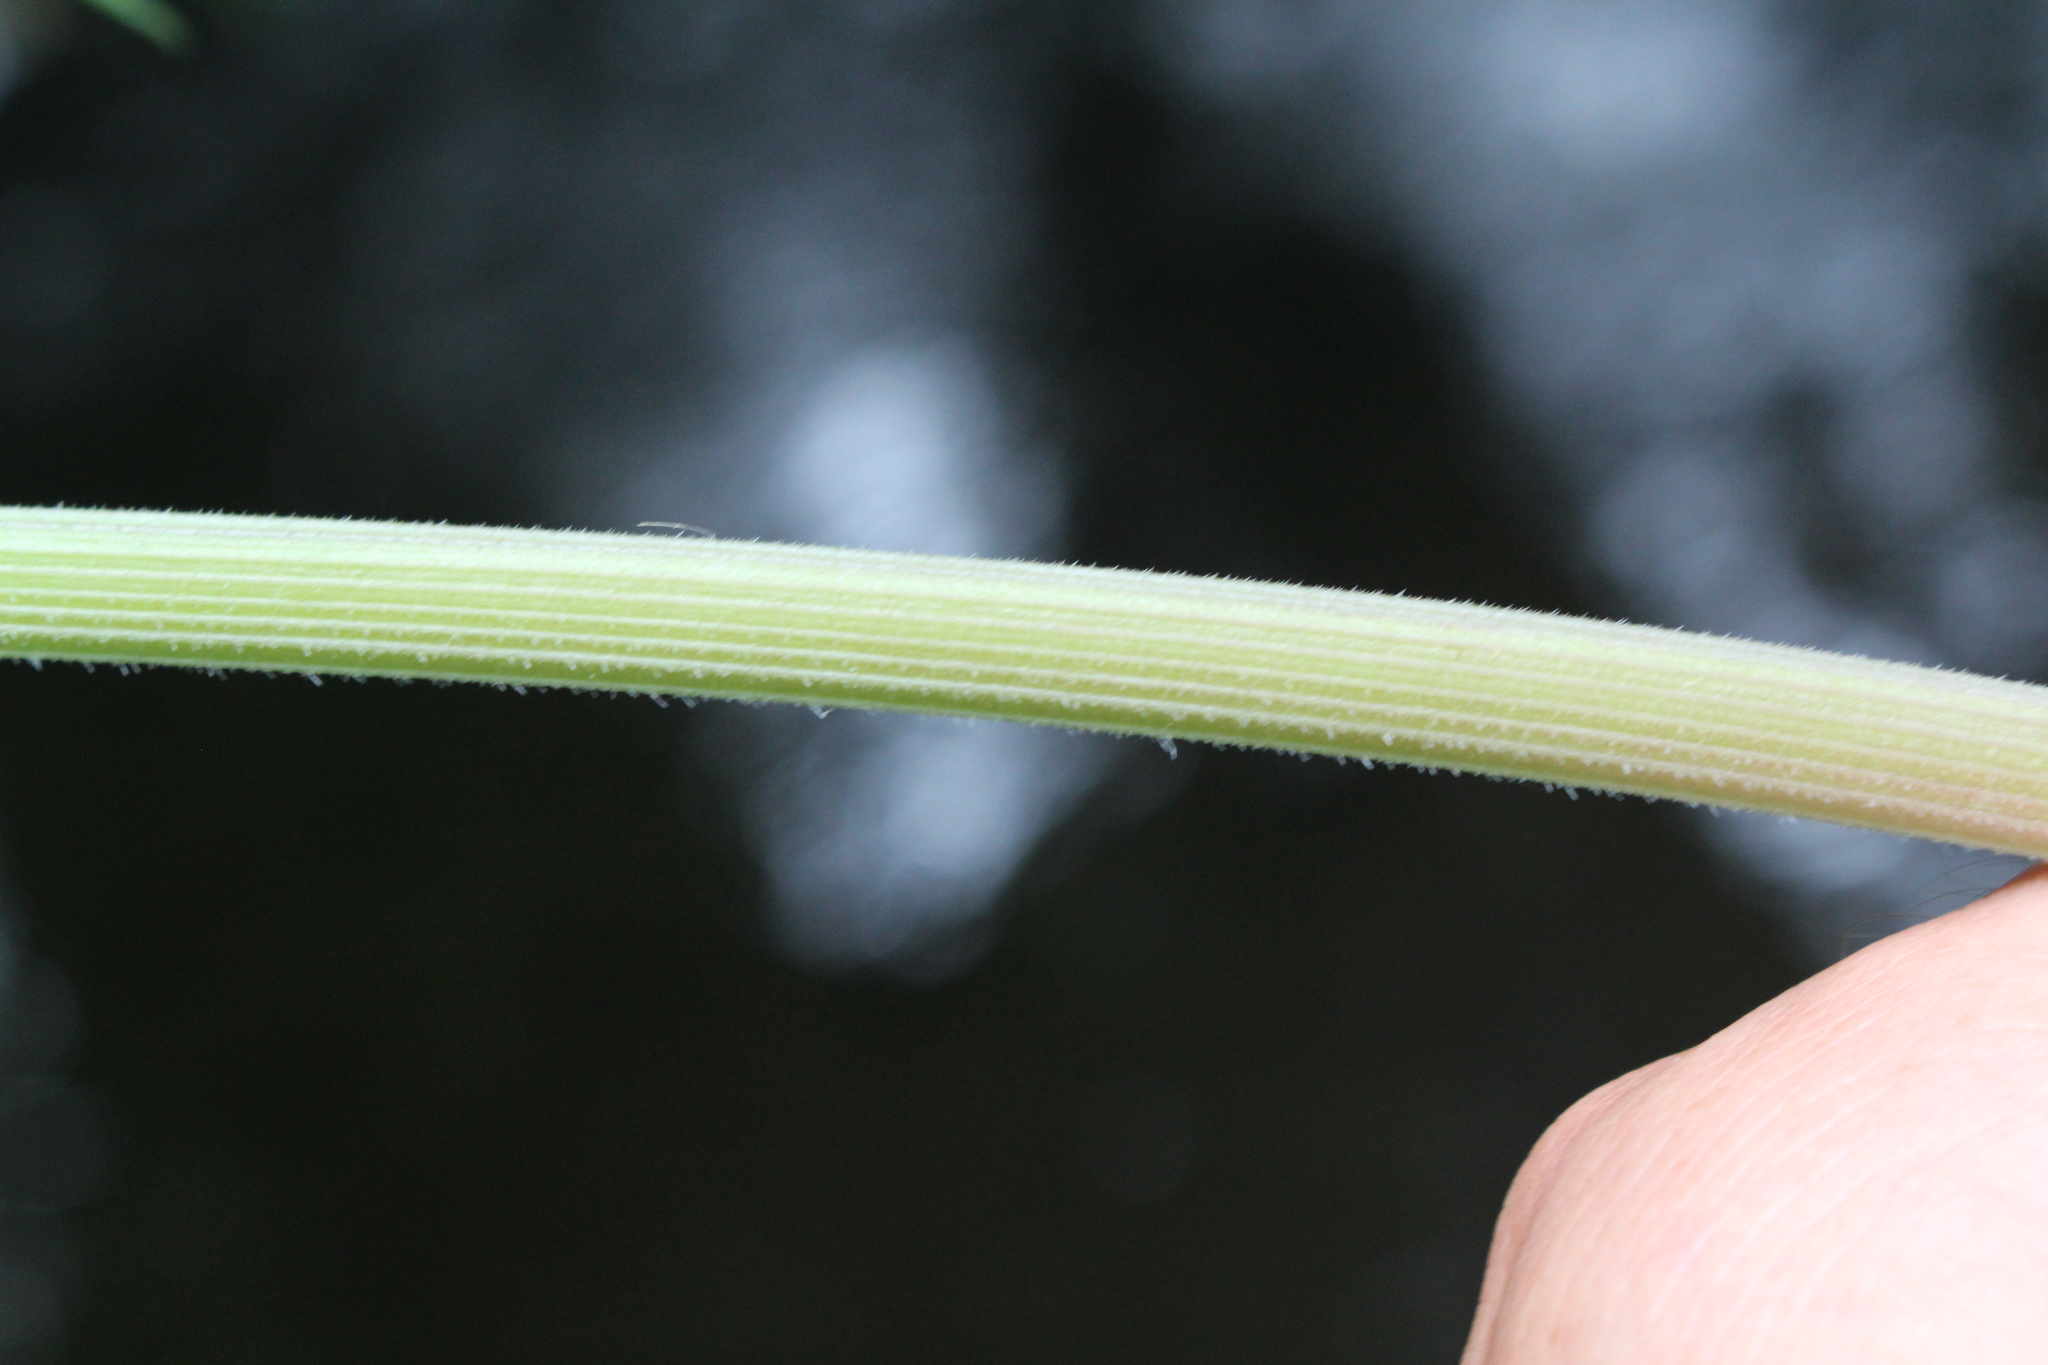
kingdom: Plantae
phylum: Tracheophyta
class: Magnoliopsida
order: Apiales
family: Apiaceae
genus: Anthriscus
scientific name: Anthriscus sylvestris
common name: Cow parsley
